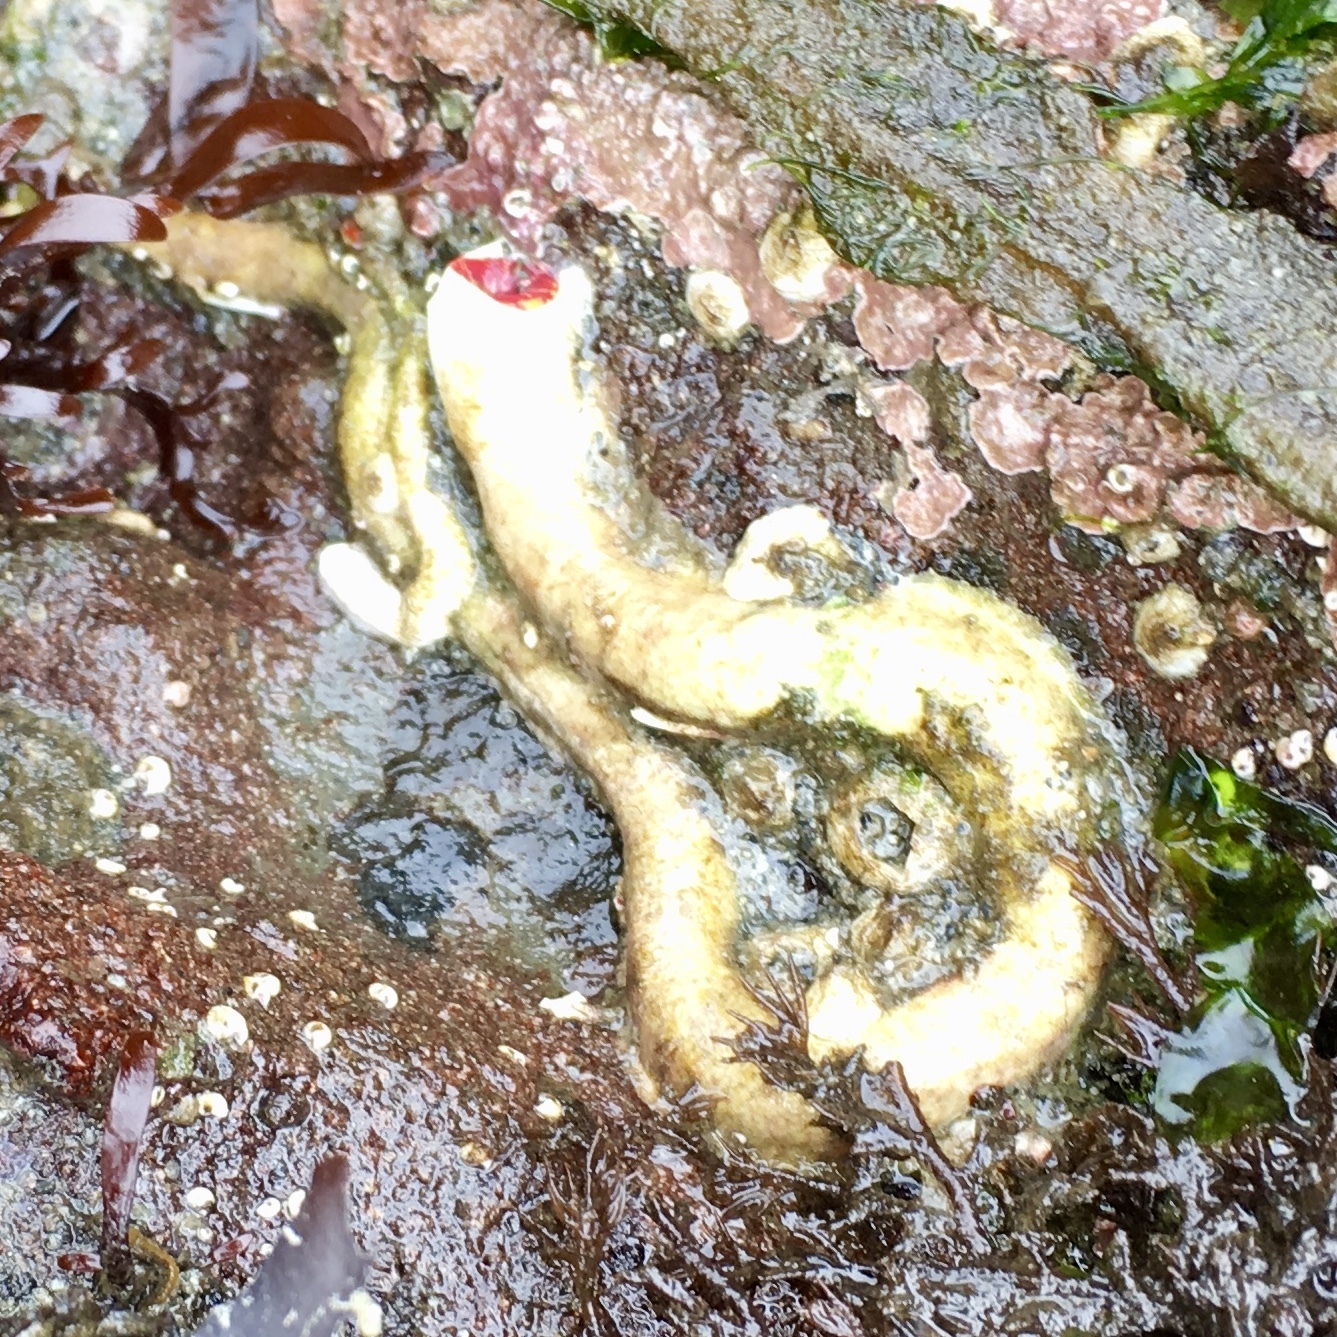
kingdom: Animalia
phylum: Annelida
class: Polychaeta
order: Sabellida
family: Serpulidae
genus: Serpula
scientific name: Serpula columbiana
